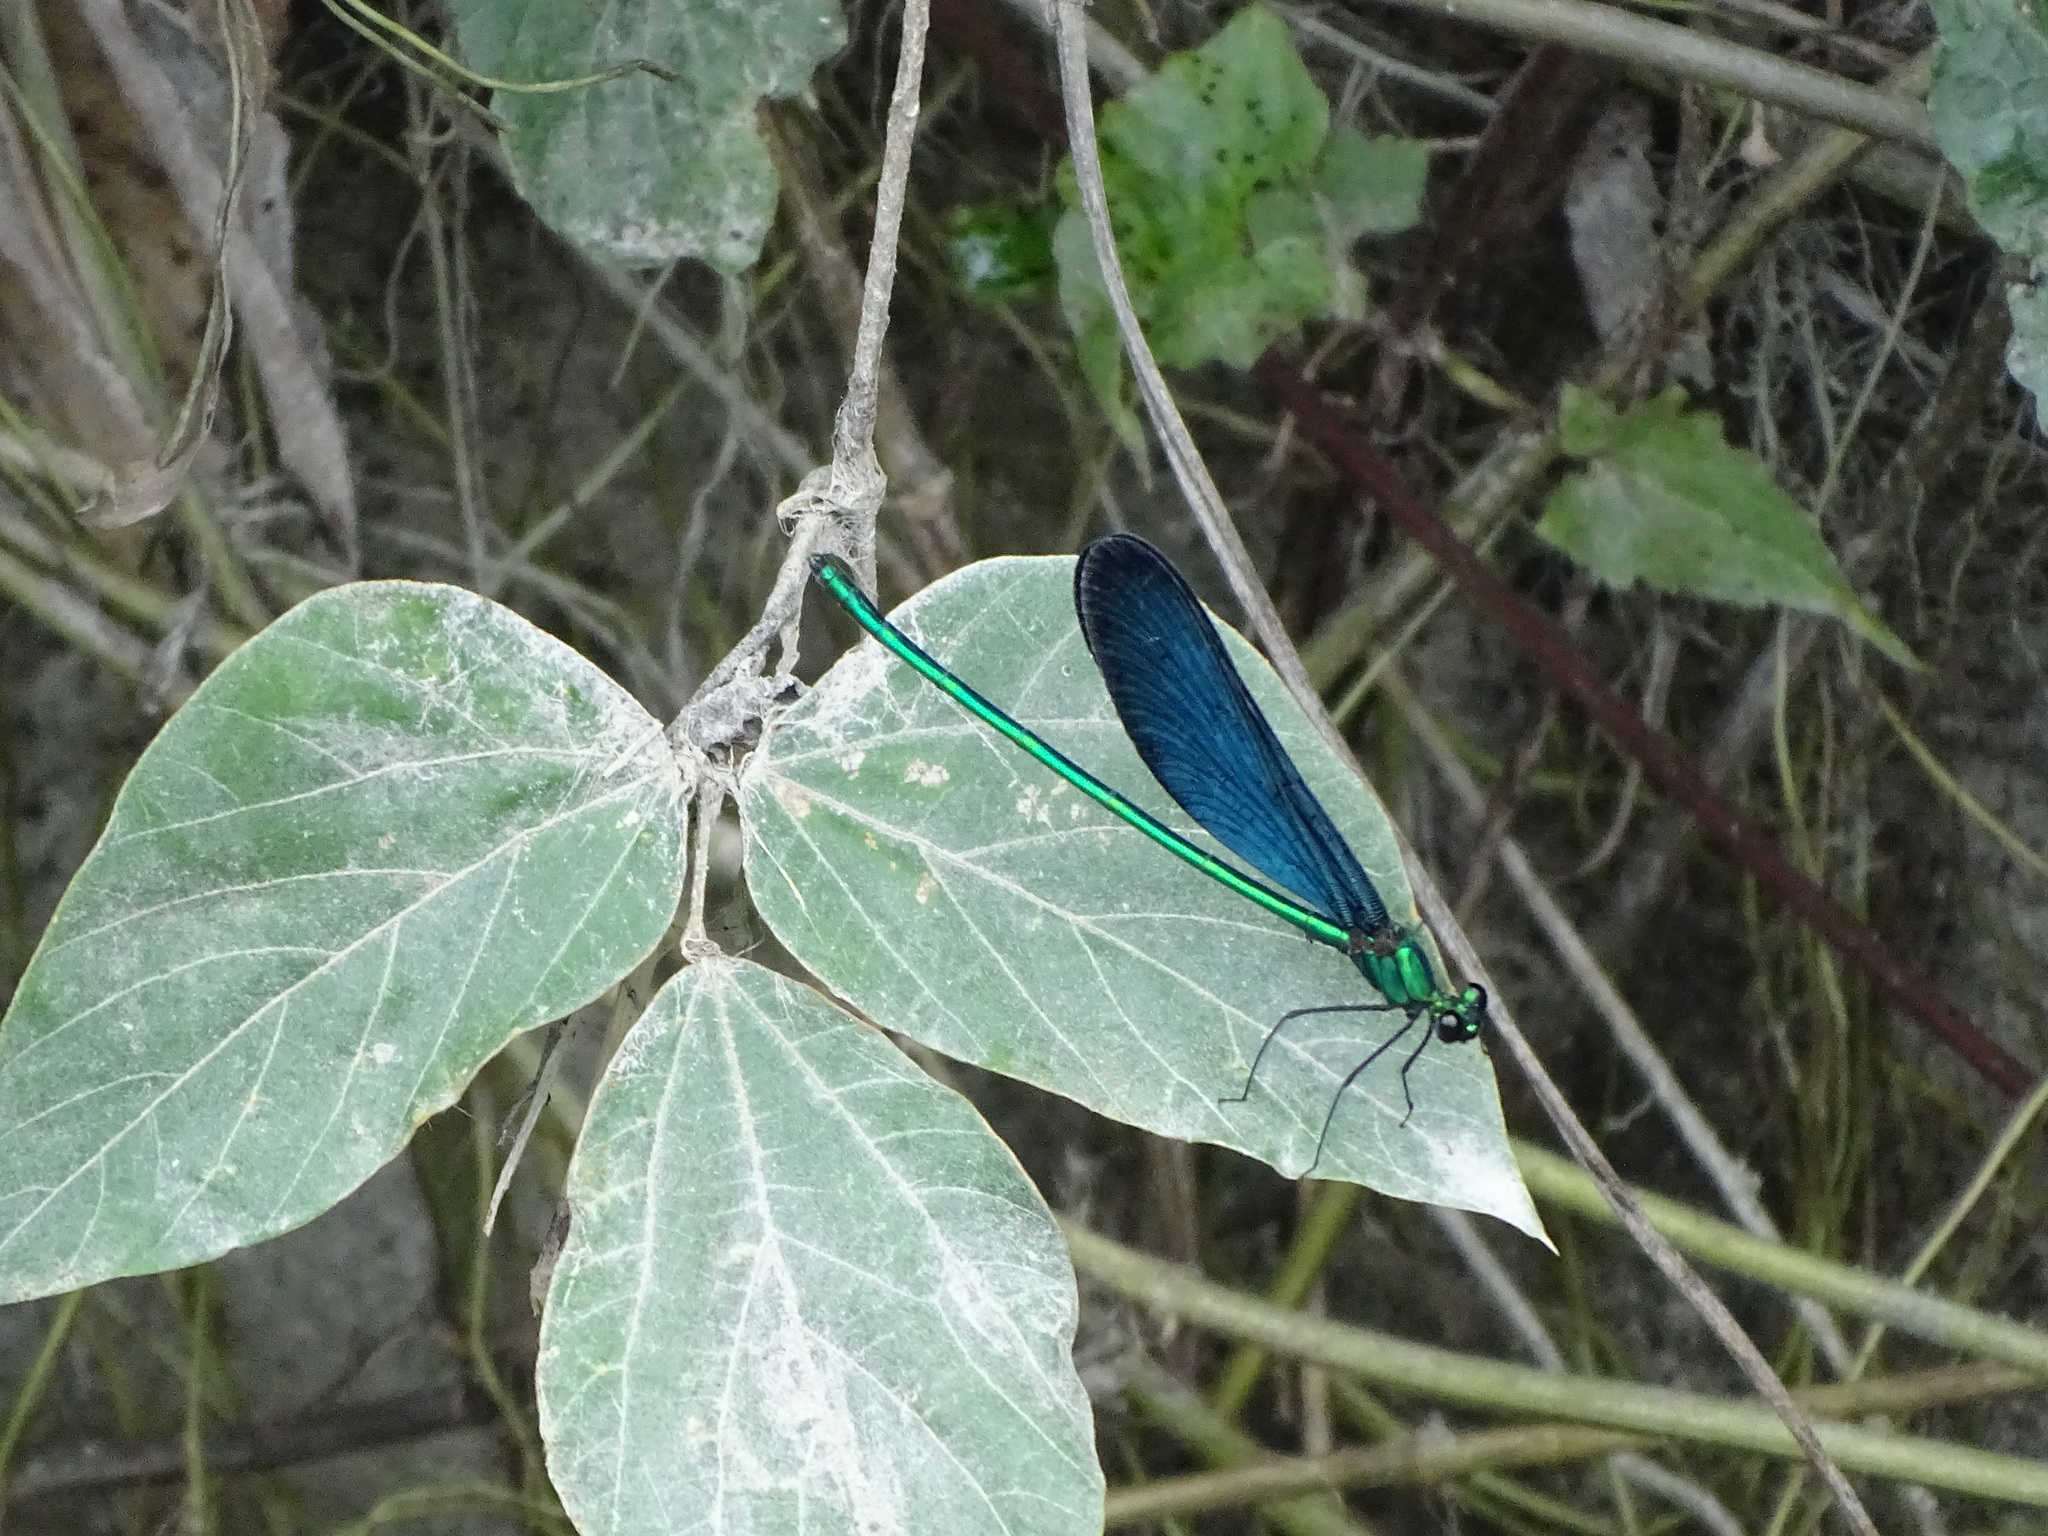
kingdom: Animalia
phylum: Arthropoda
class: Insecta
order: Odonata
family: Calopterygidae
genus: Matrona
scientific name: Matrona cyanoptera
